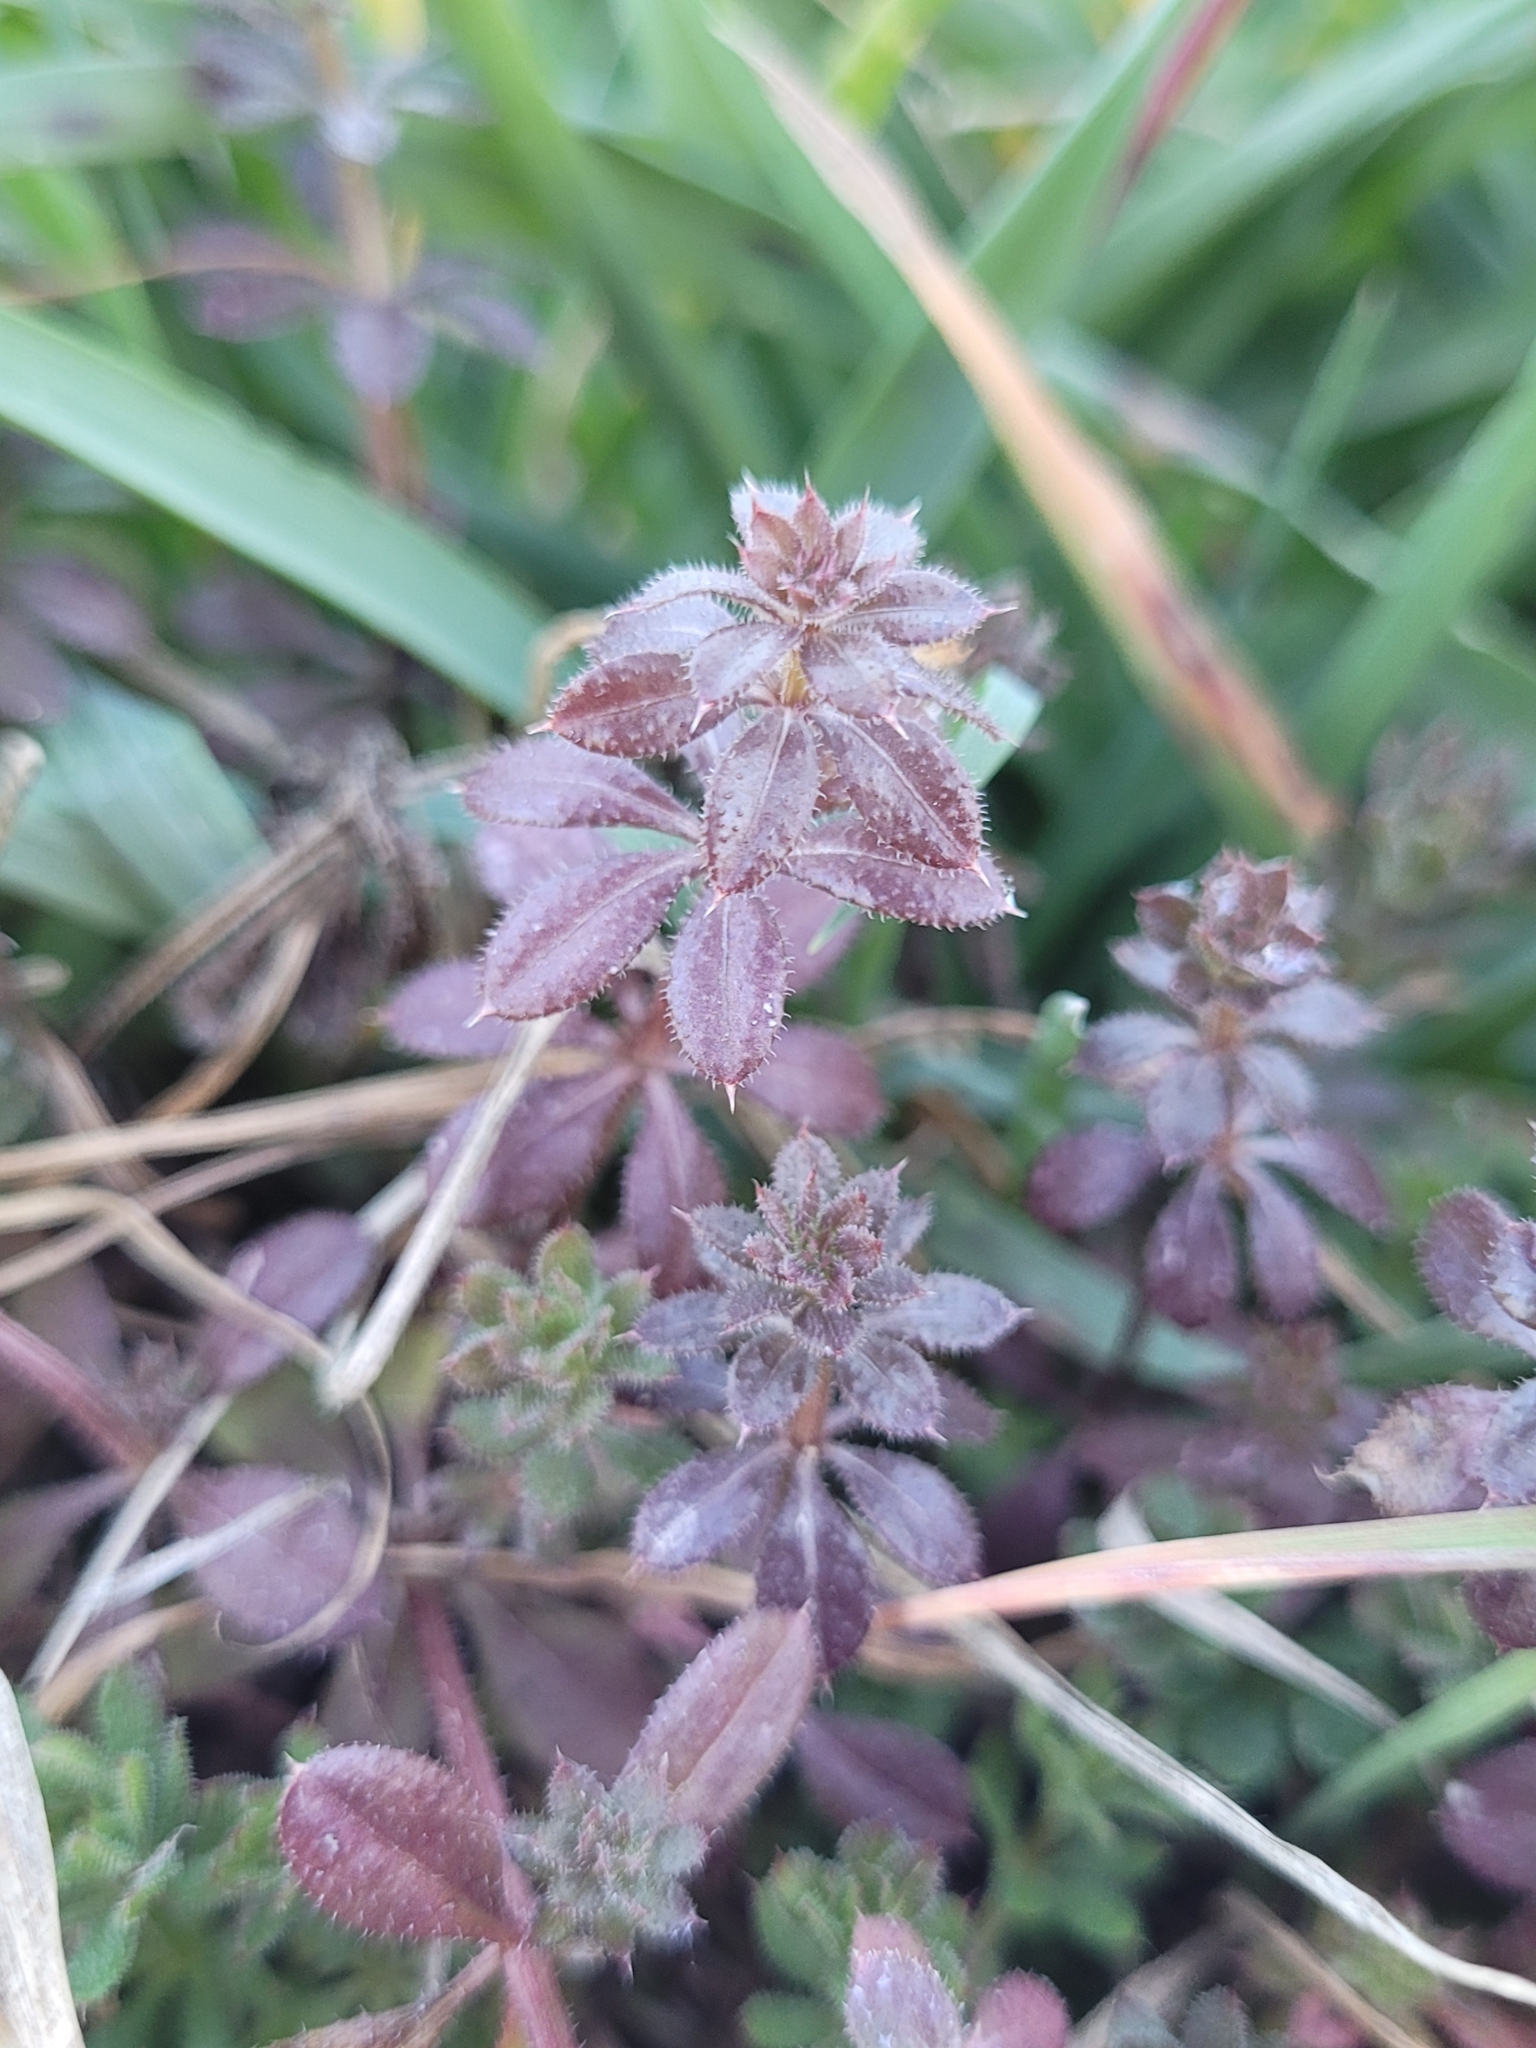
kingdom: Plantae
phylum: Tracheophyta
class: Magnoliopsida
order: Gentianales
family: Rubiaceae
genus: Galium
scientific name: Galium aparine
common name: Cleavers
